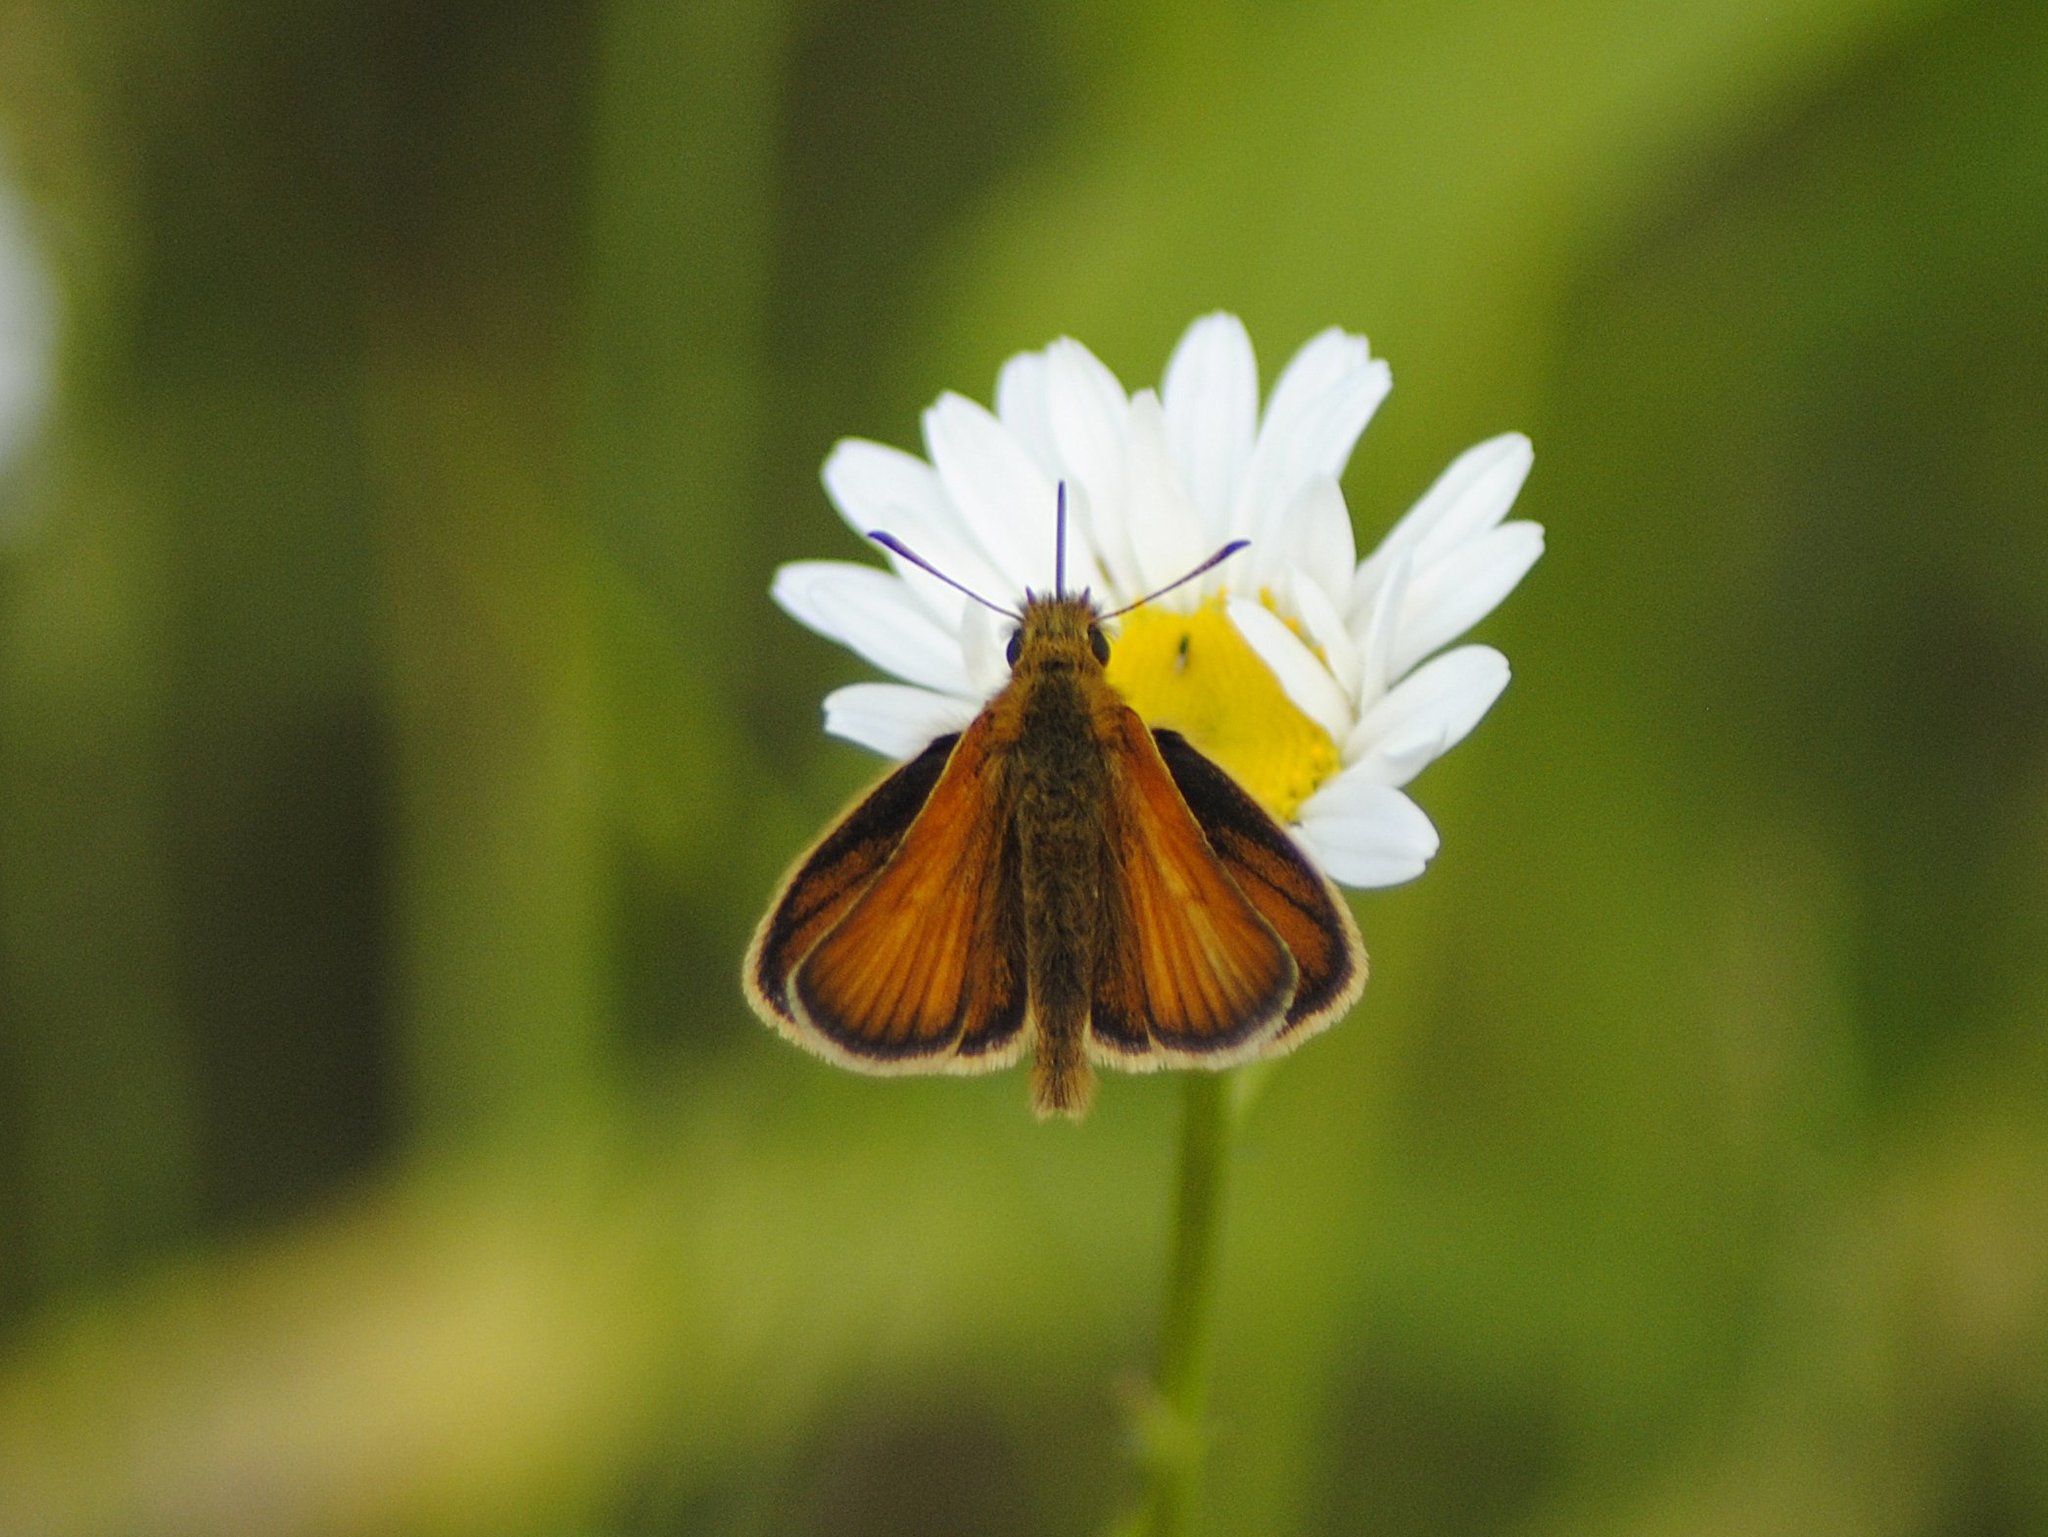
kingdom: Animalia
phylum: Arthropoda
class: Insecta
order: Lepidoptera
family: Hesperiidae
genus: Thymelicus
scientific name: Thymelicus lineola
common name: Essex skipper
